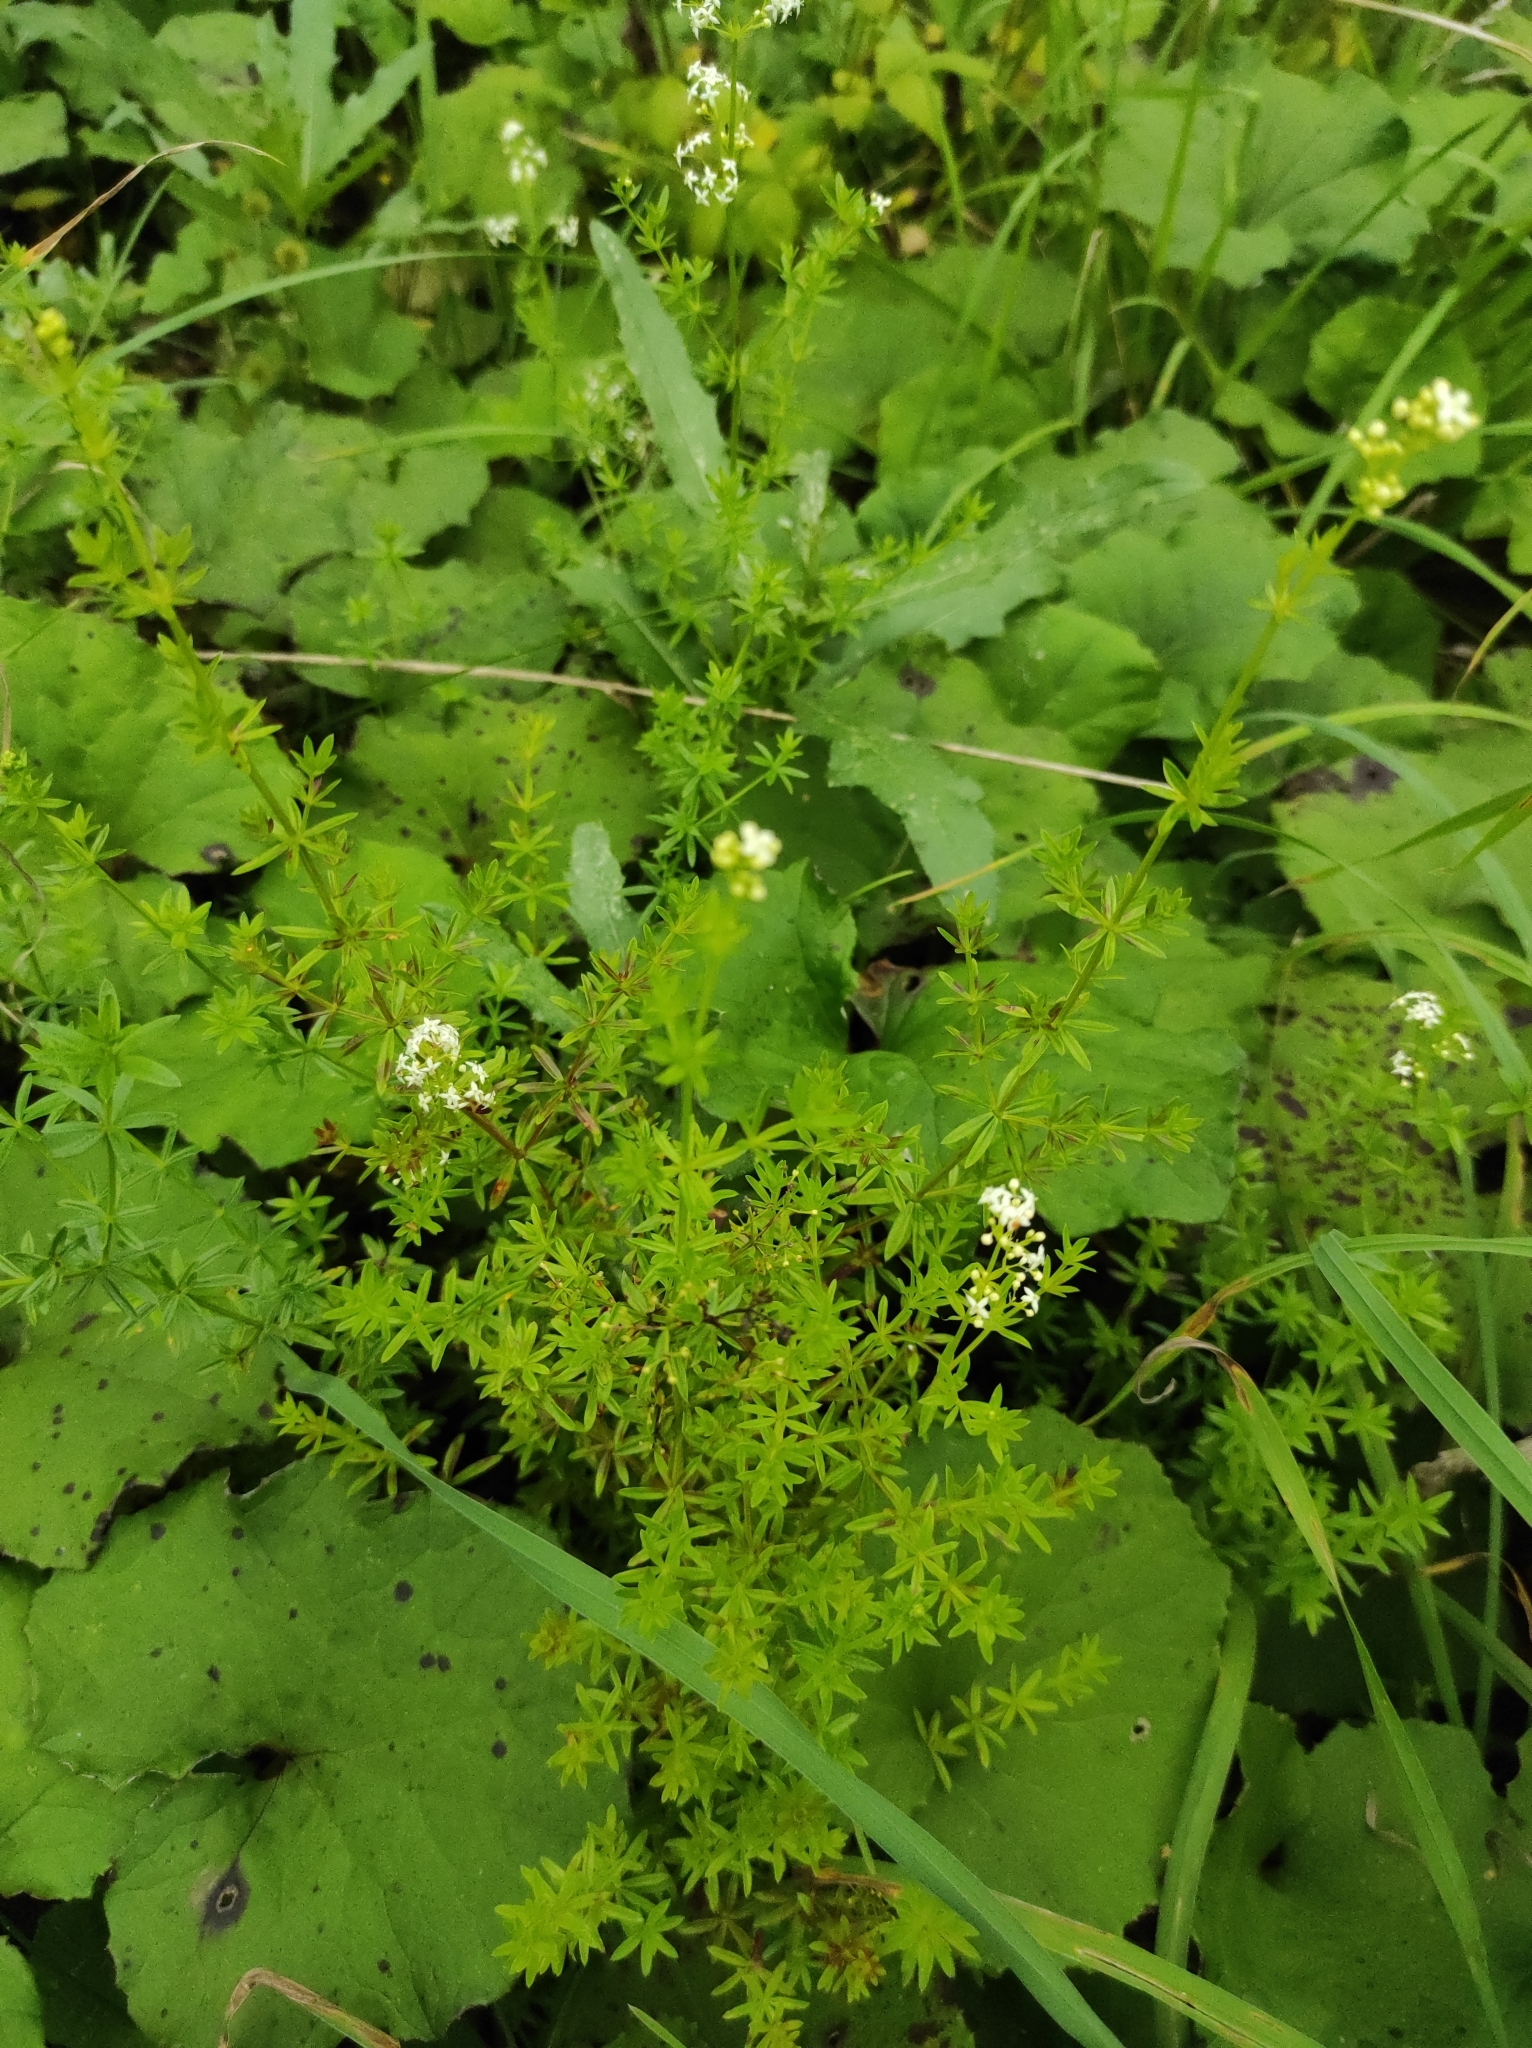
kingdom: Plantae
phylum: Tracheophyta
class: Magnoliopsida
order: Asterales
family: Asteraceae
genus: Tussilago
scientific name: Tussilago farfara
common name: Coltsfoot
